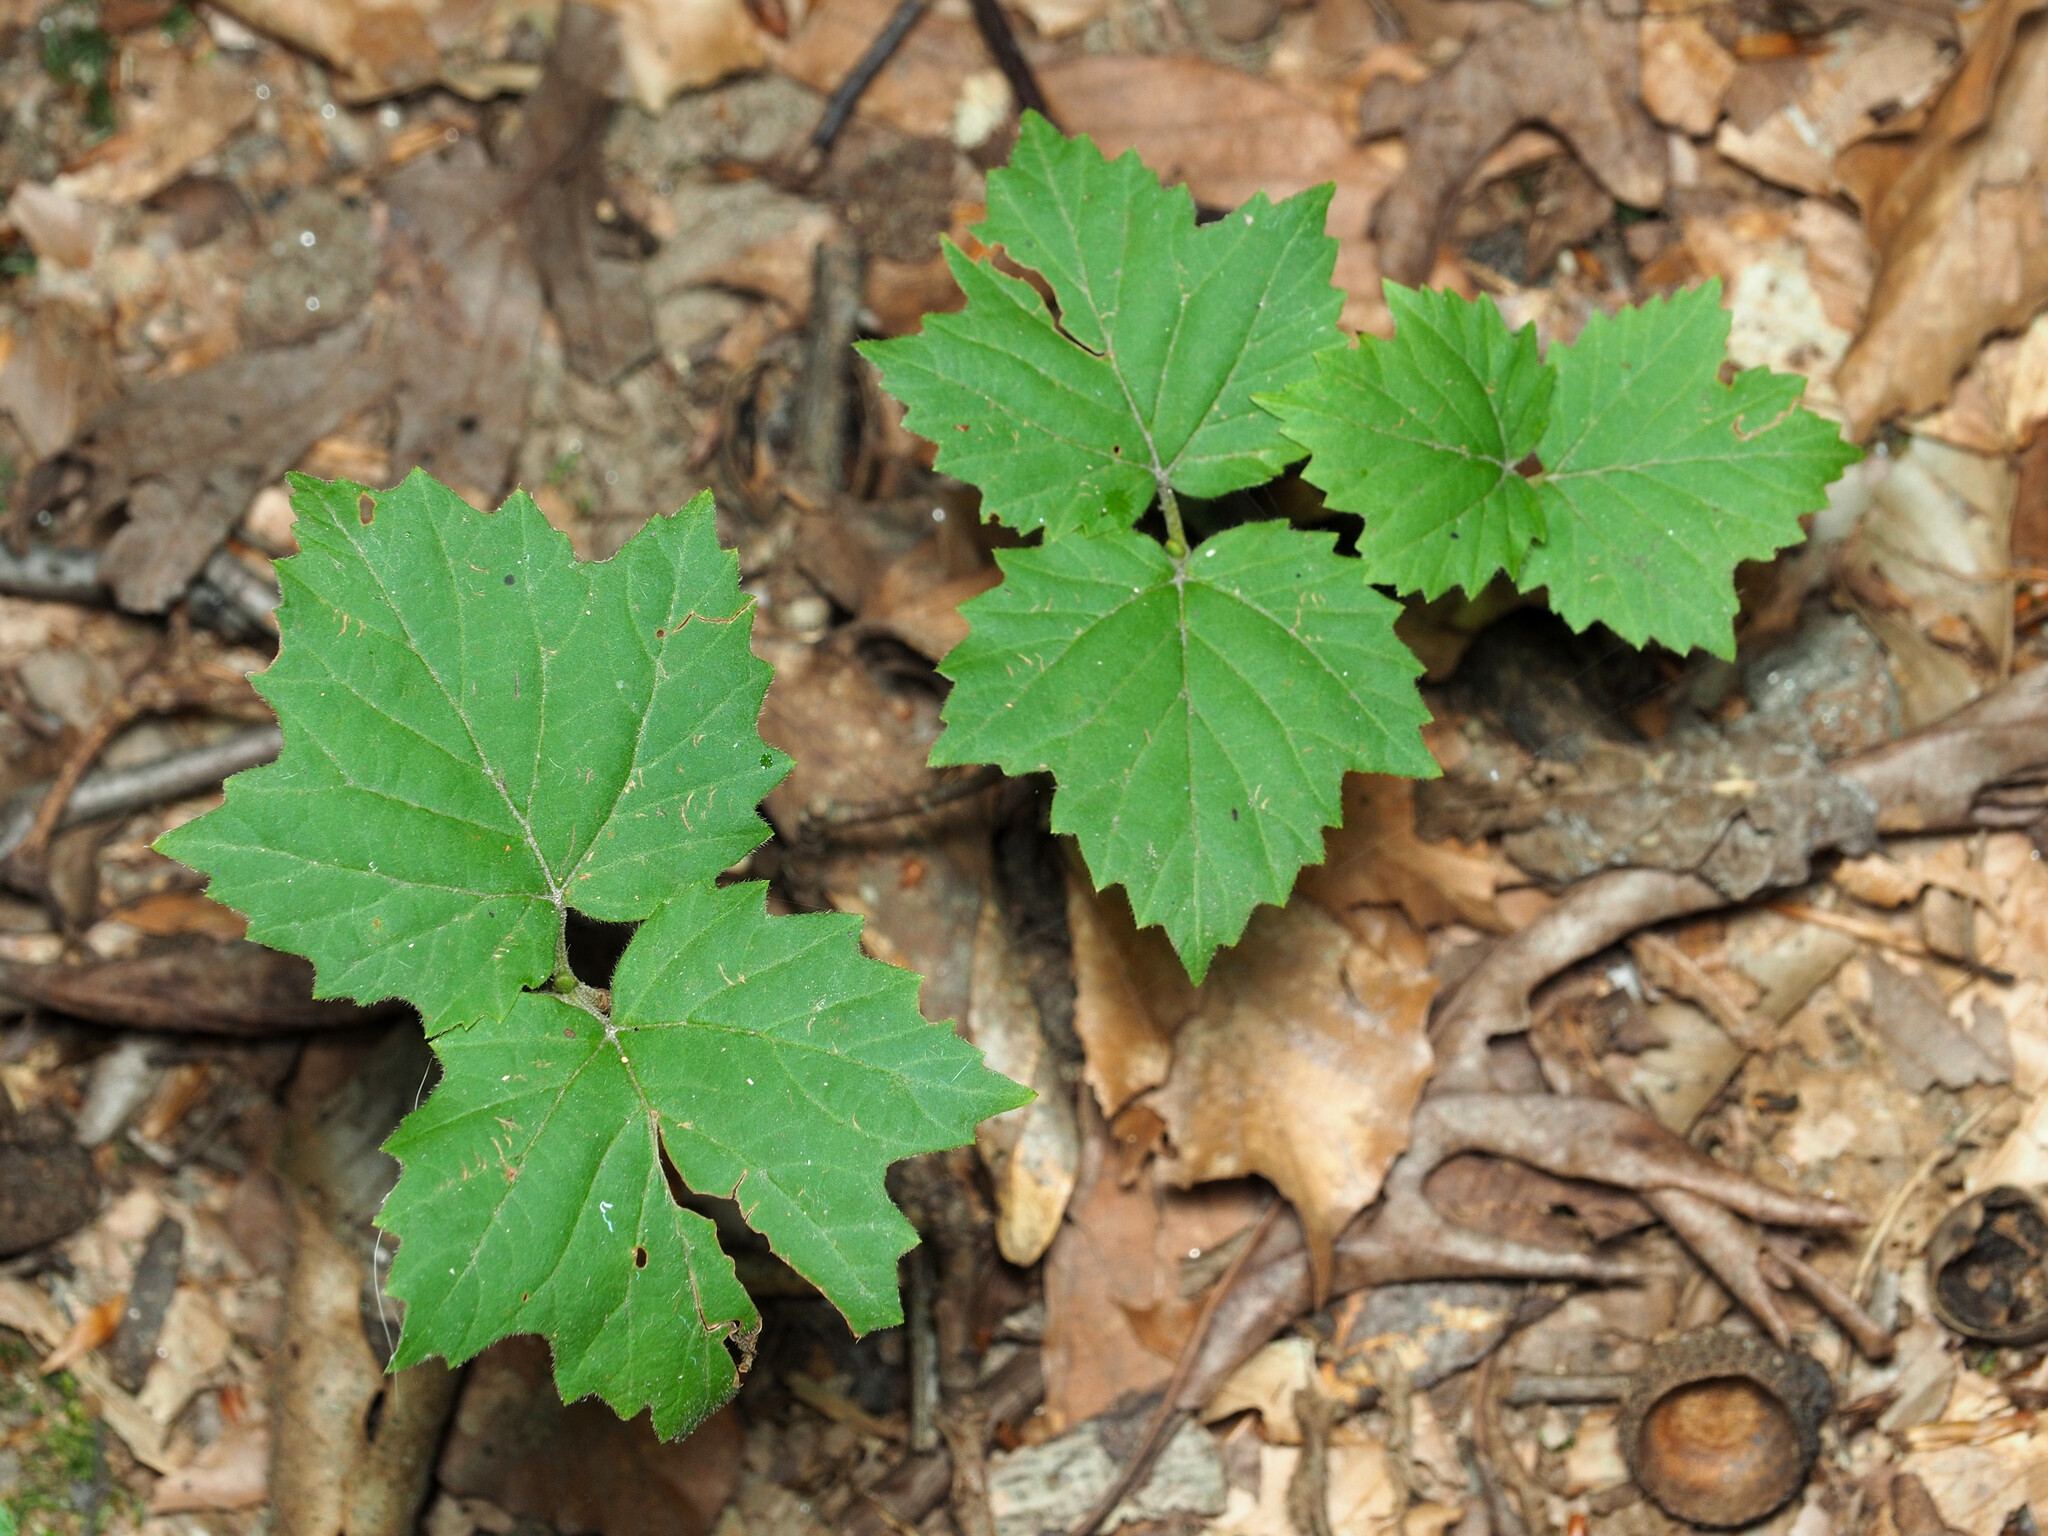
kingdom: Plantae
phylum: Tracheophyta
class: Magnoliopsida
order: Dipsacales
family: Viburnaceae
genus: Viburnum
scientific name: Viburnum acerifolium
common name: Dockmackie
